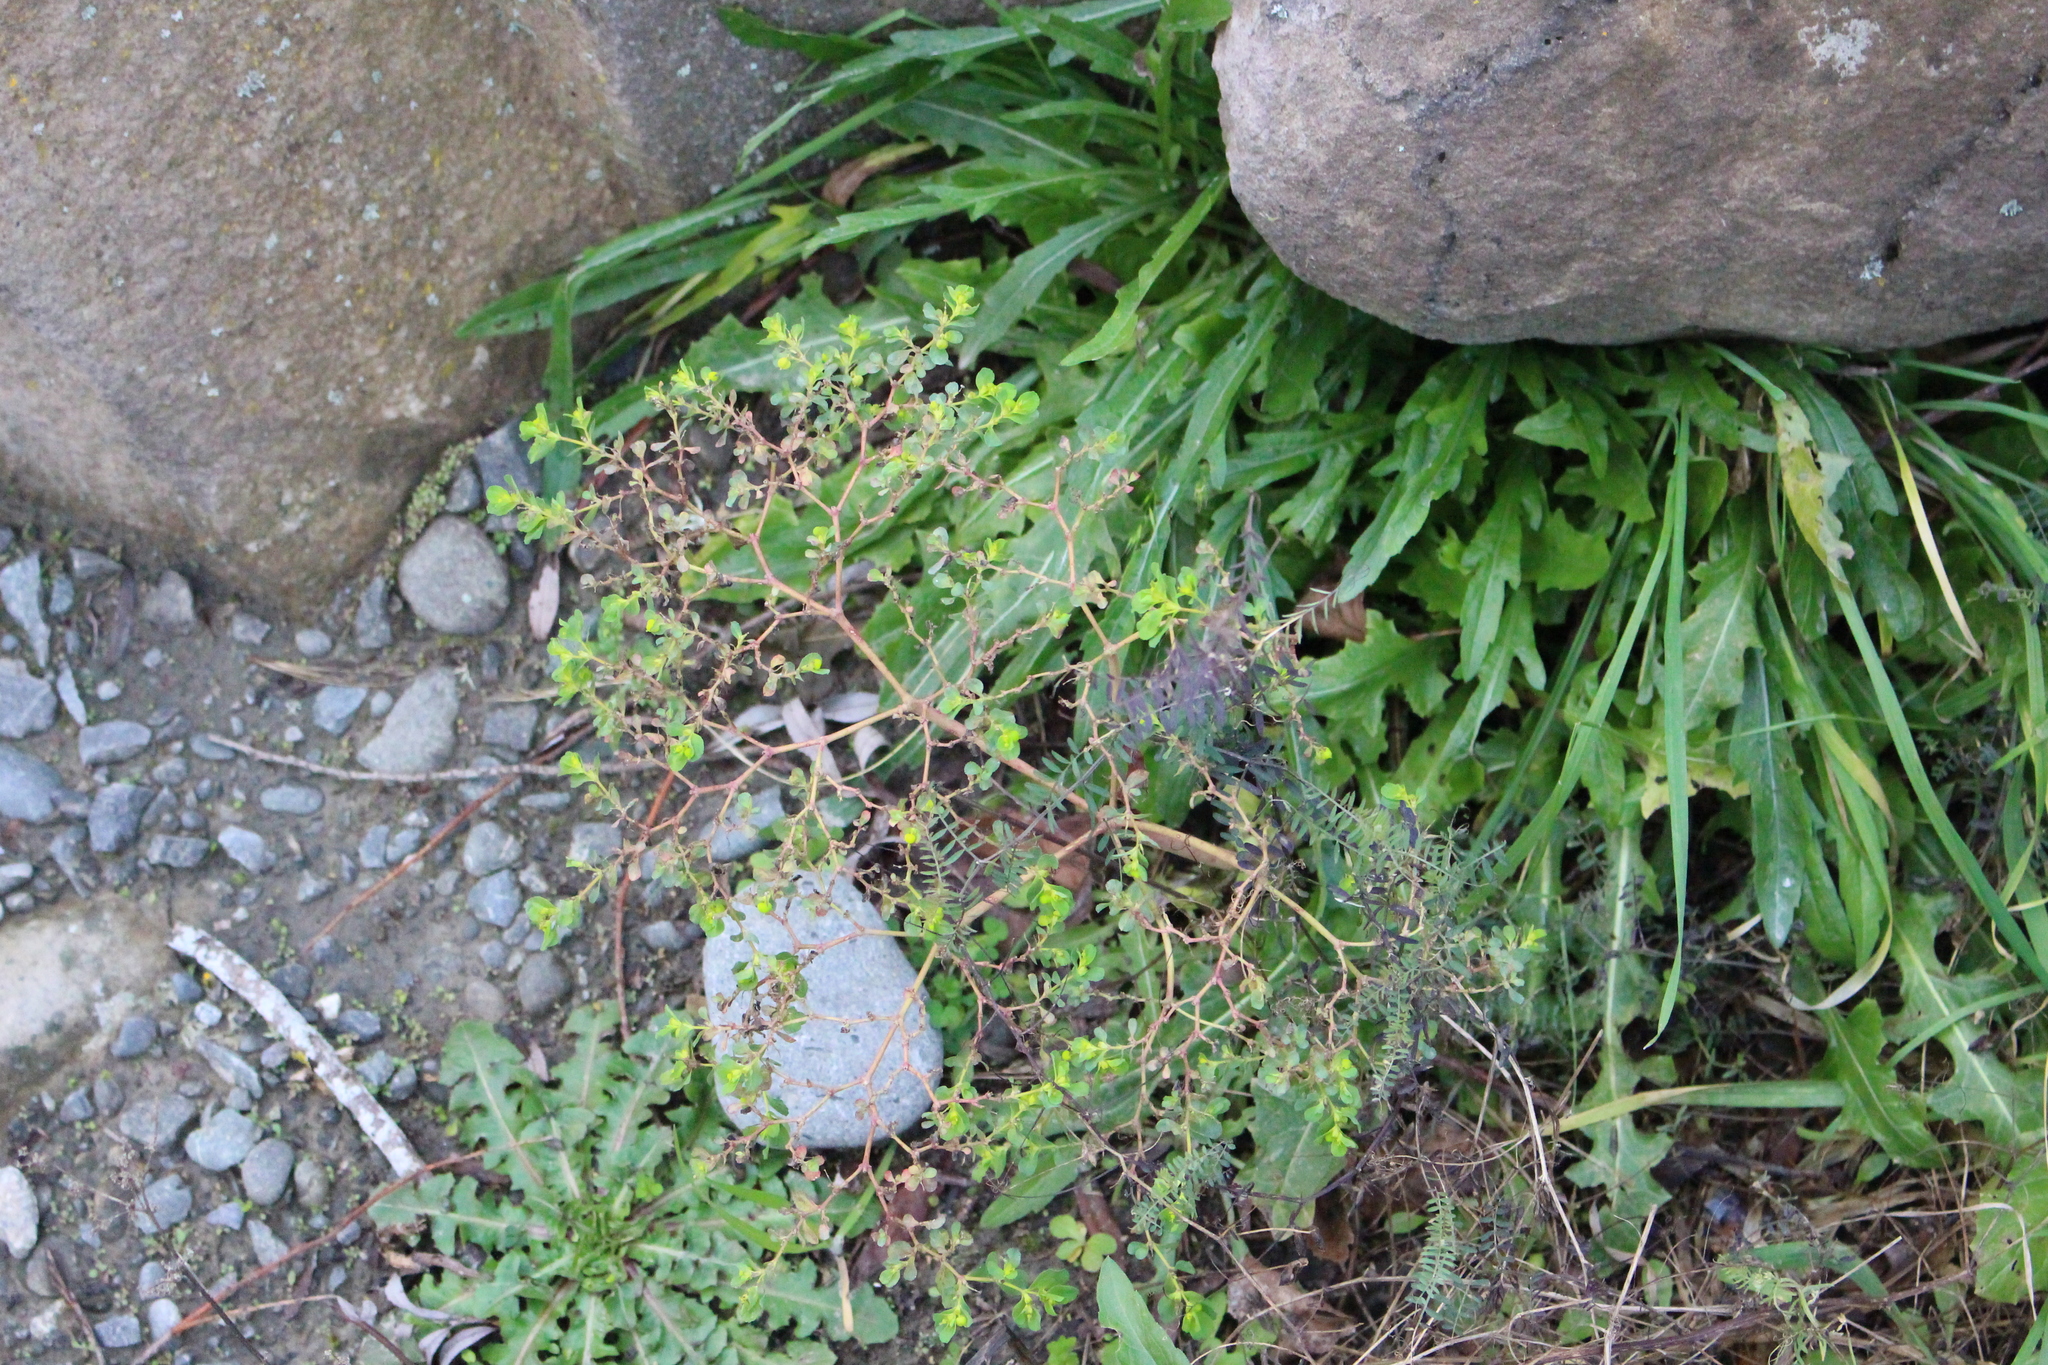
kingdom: Plantae
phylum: Tracheophyta
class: Magnoliopsida
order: Malpighiales
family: Euphorbiaceae
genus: Euphorbia
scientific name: Euphorbia helioscopia
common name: Sun spurge
